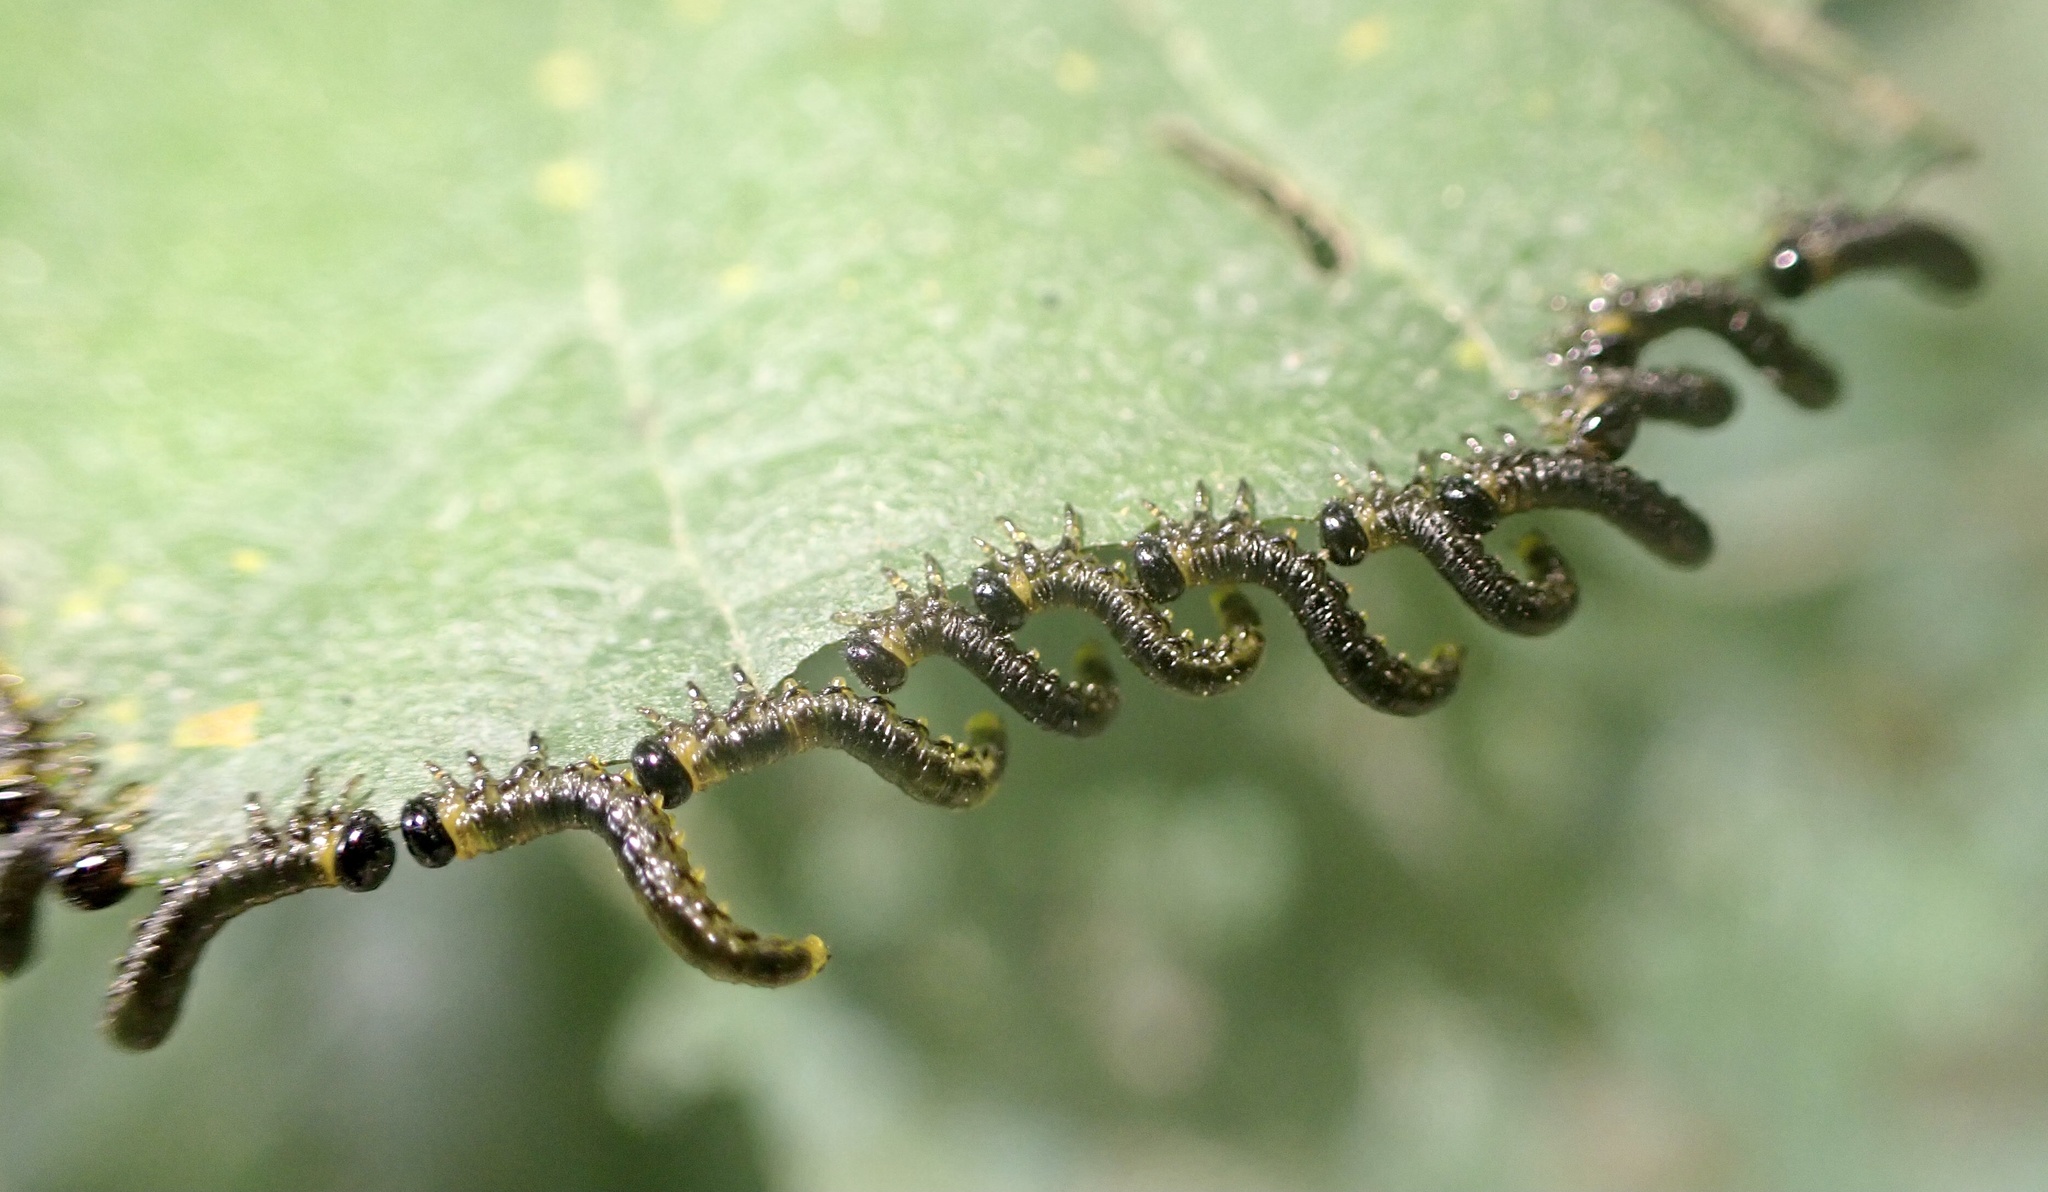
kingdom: Animalia
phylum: Arthropoda
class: Insecta
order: Hymenoptera
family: Tenthredinidae
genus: Craesus
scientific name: Craesus septentrionalis
